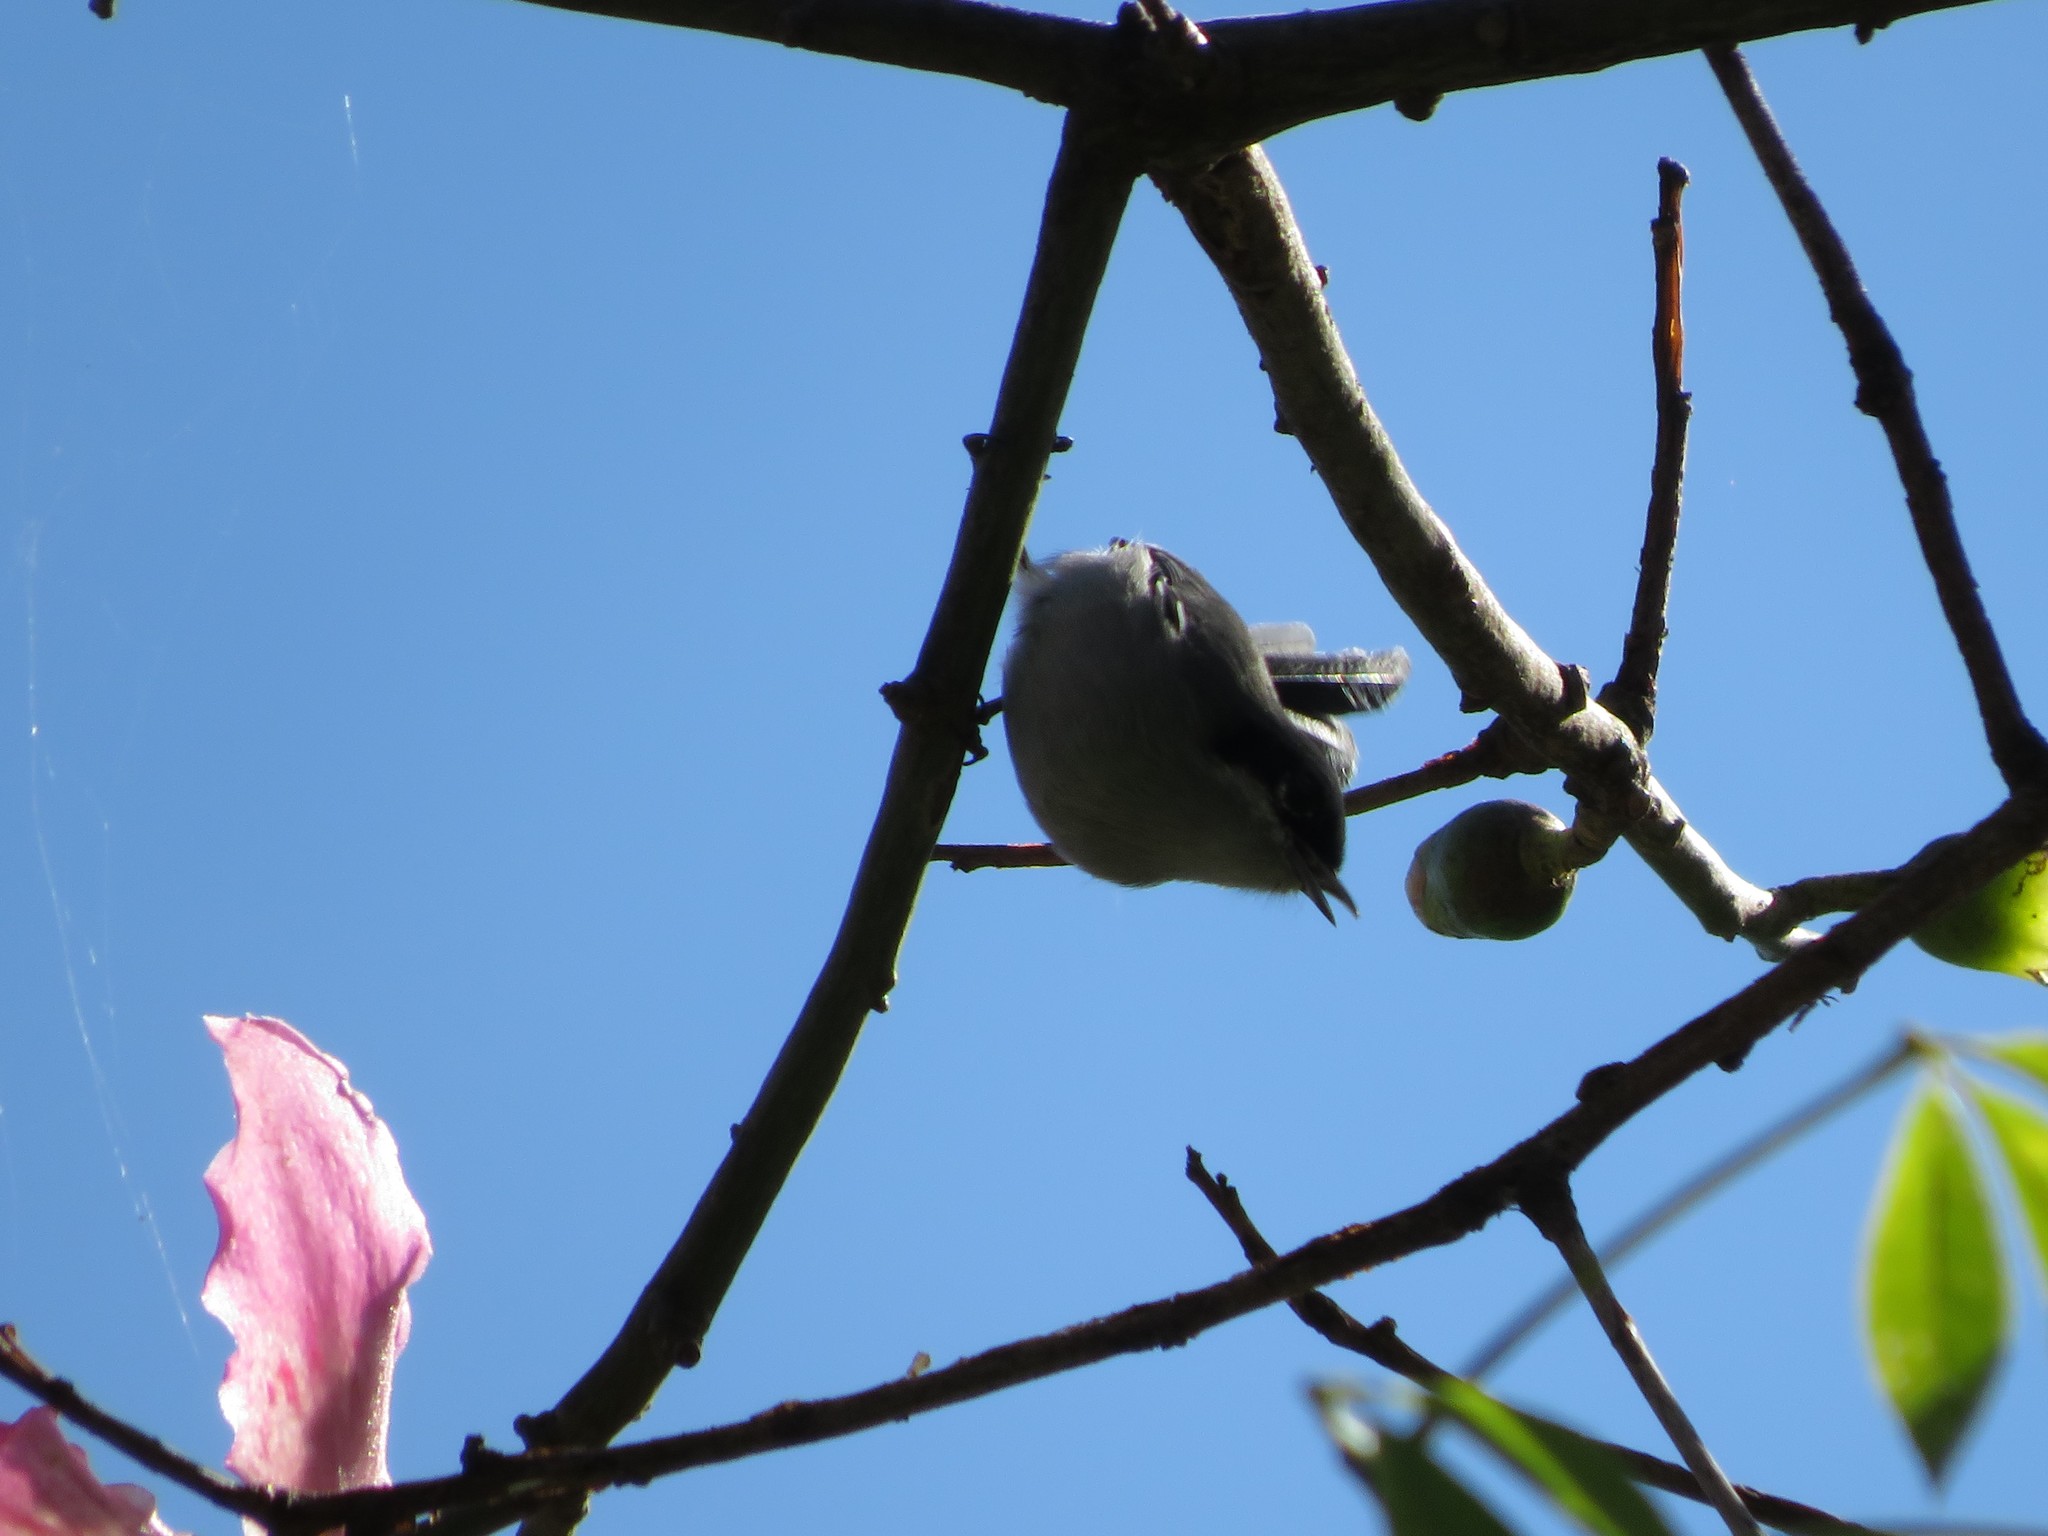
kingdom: Animalia
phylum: Chordata
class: Aves
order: Passeriformes
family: Polioptilidae
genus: Polioptila
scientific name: Polioptila dumicola
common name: Masked gnatcatcher
